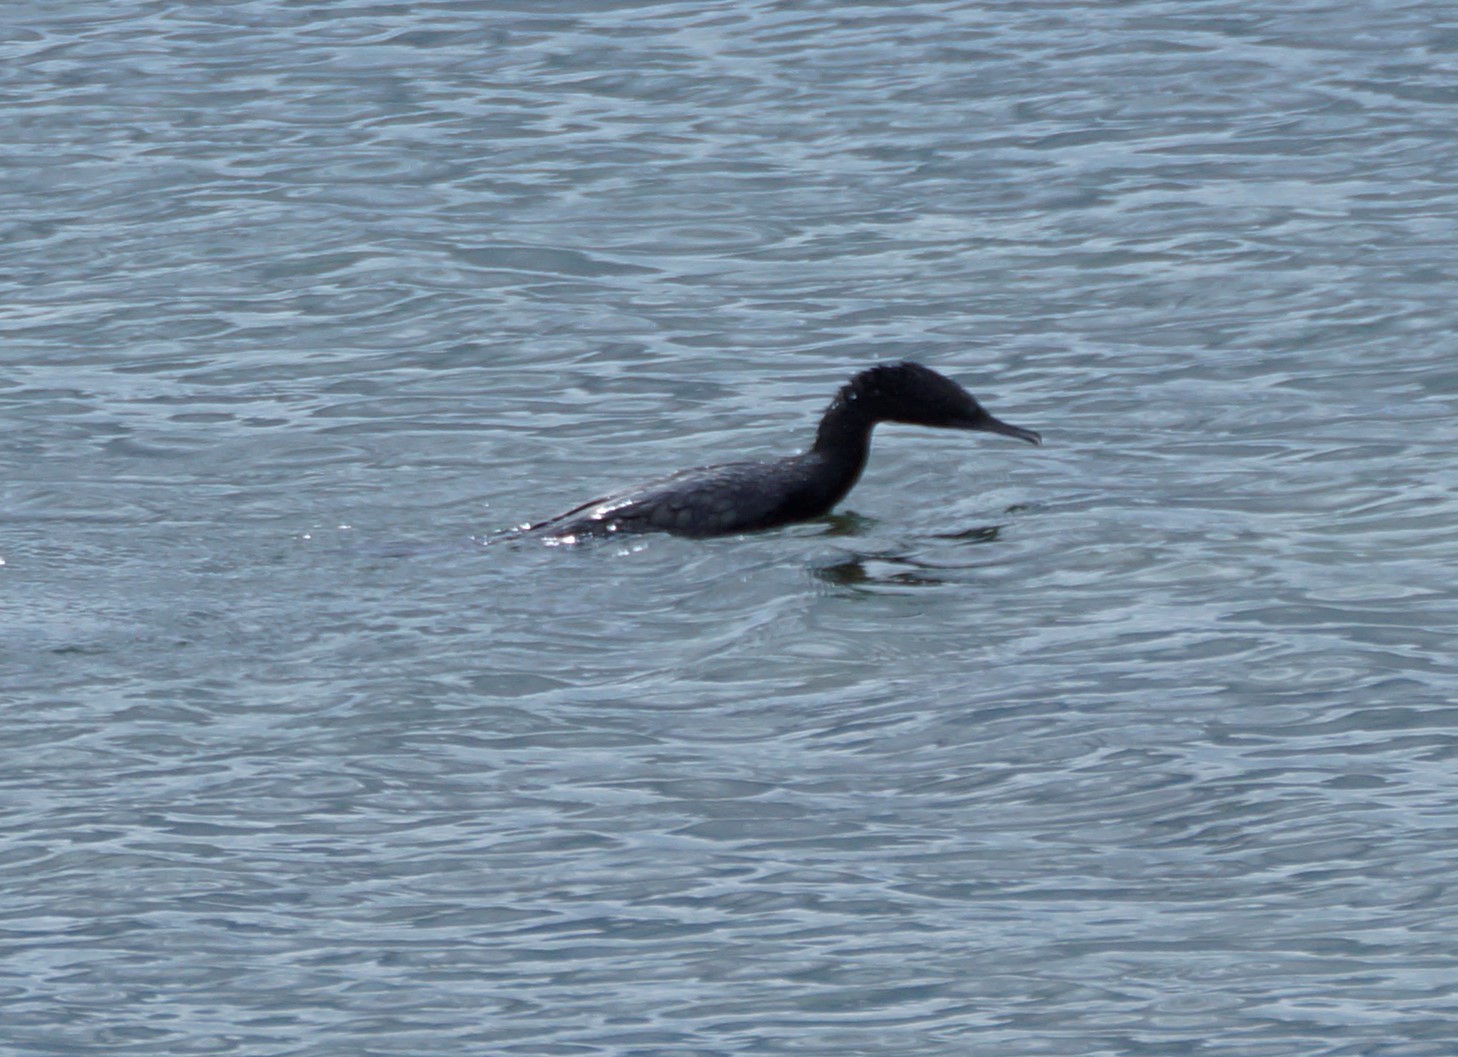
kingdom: Animalia
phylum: Chordata
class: Aves
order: Suliformes
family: Phalacrocoracidae
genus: Phalacrocorax
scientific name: Phalacrocorax sulcirostris
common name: Little black cormorant
